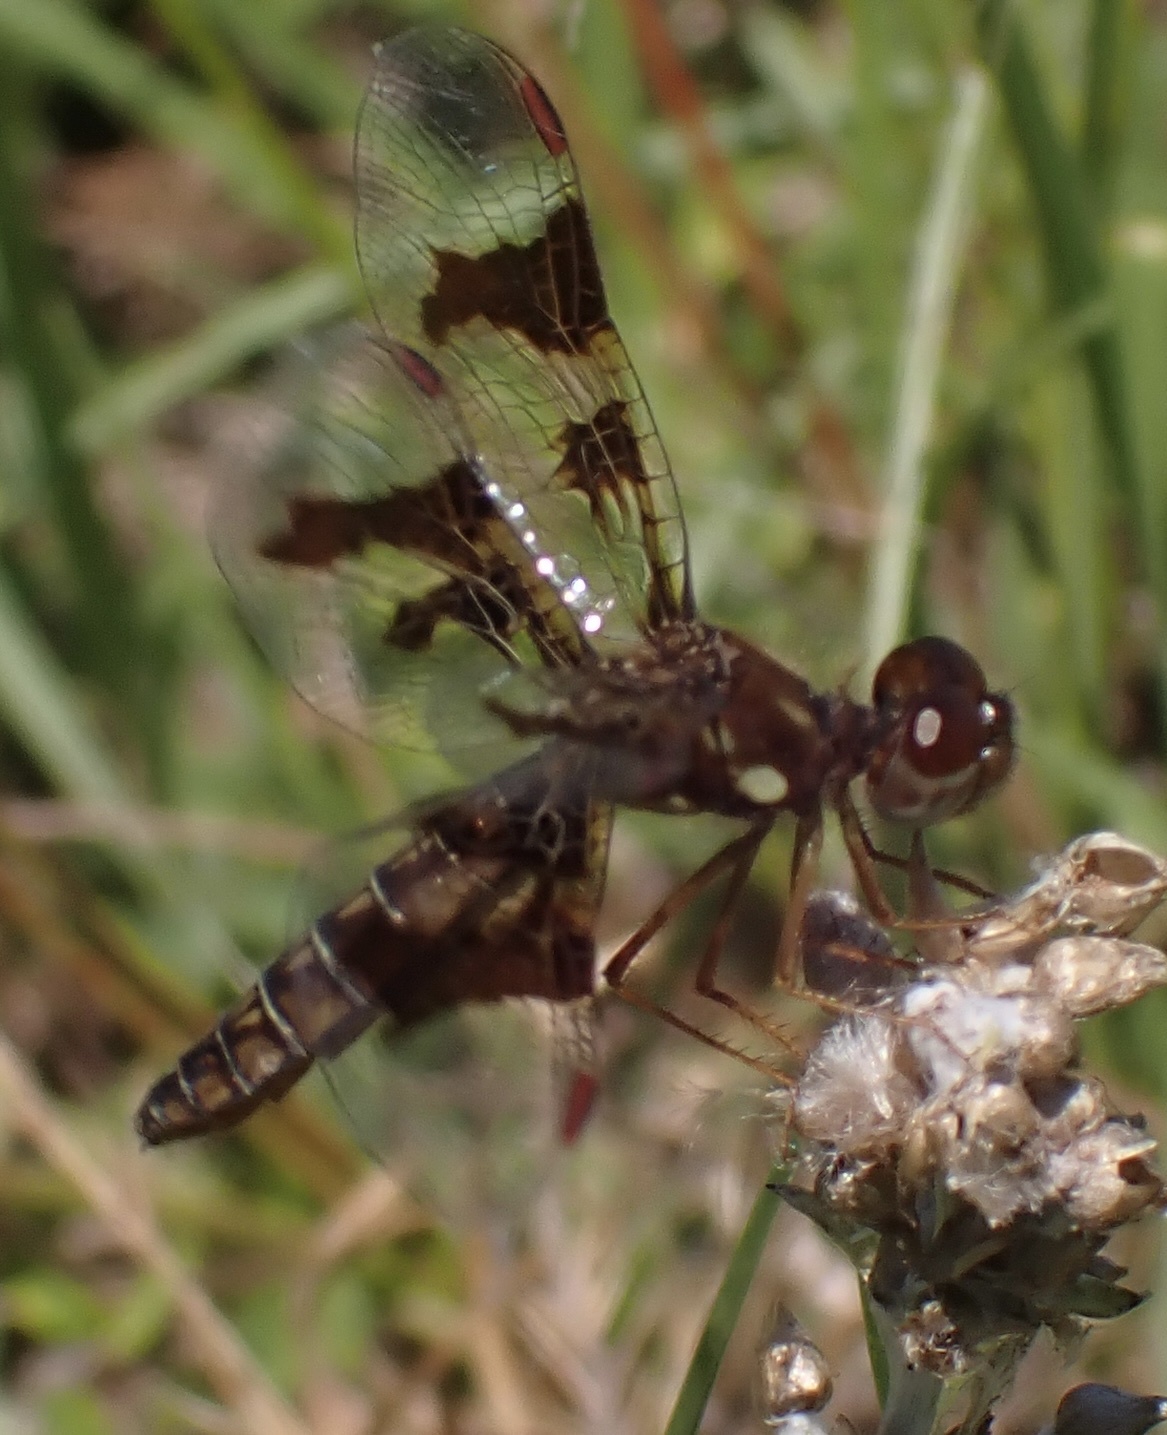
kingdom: Animalia
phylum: Arthropoda
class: Insecta
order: Odonata
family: Libellulidae
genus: Perithemis
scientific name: Perithemis tenera
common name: Eastern amberwing
